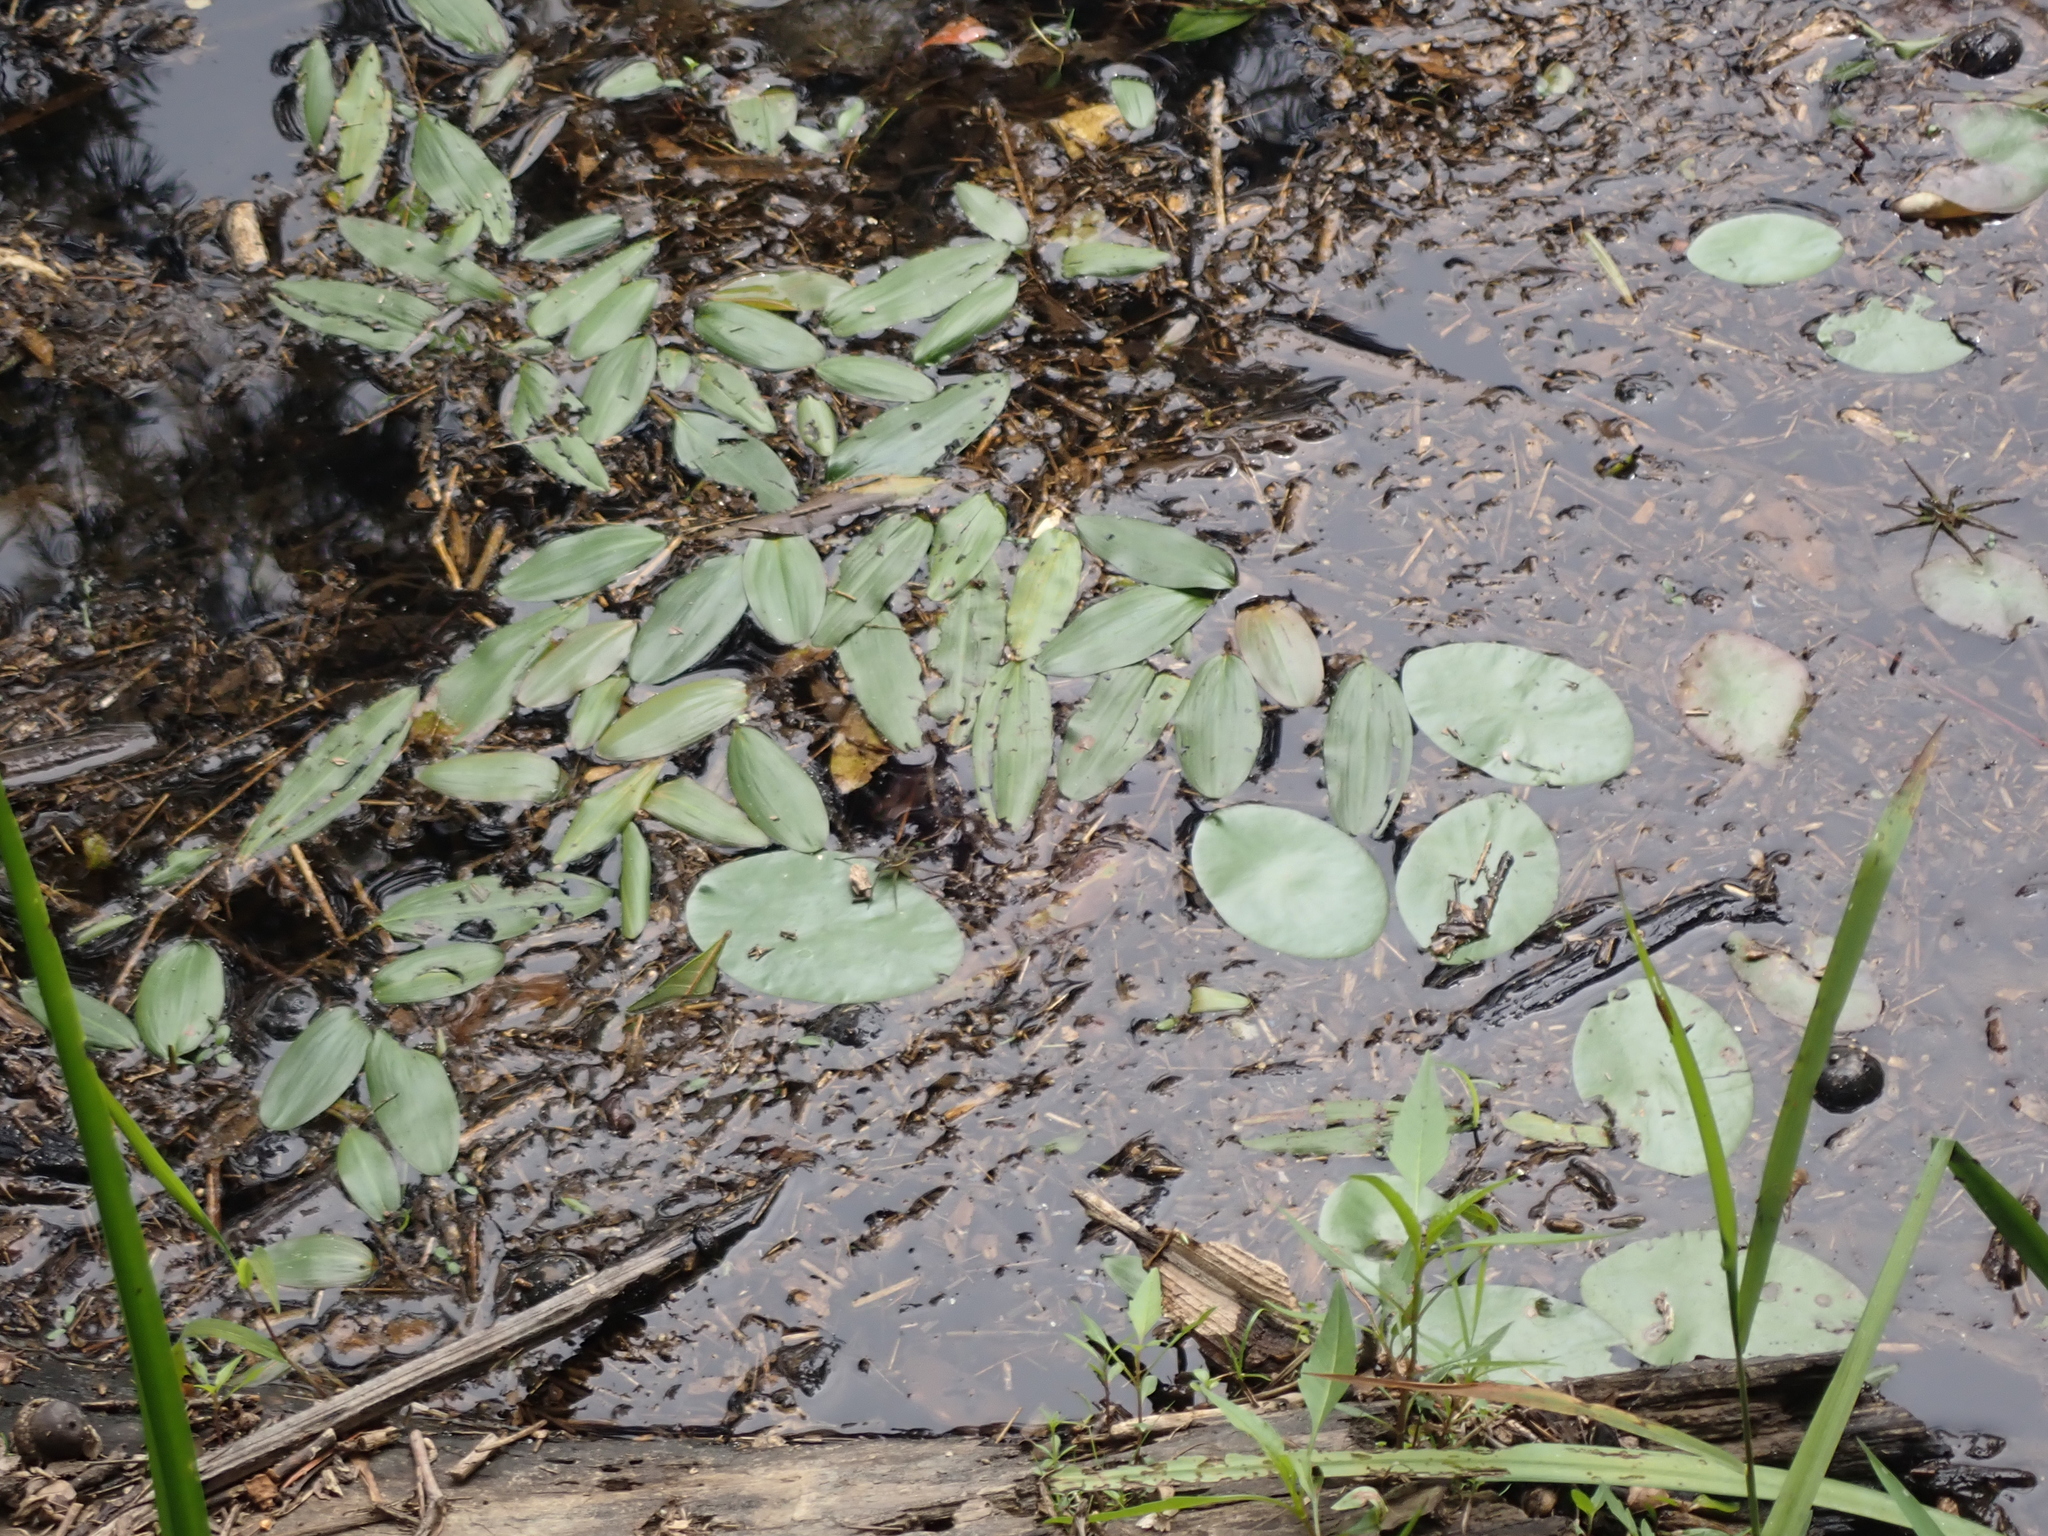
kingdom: Plantae
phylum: Tracheophyta
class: Magnoliopsida
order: Nymphaeales
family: Cabombaceae
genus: Brasenia
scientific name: Brasenia schreberi
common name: Water-shield
